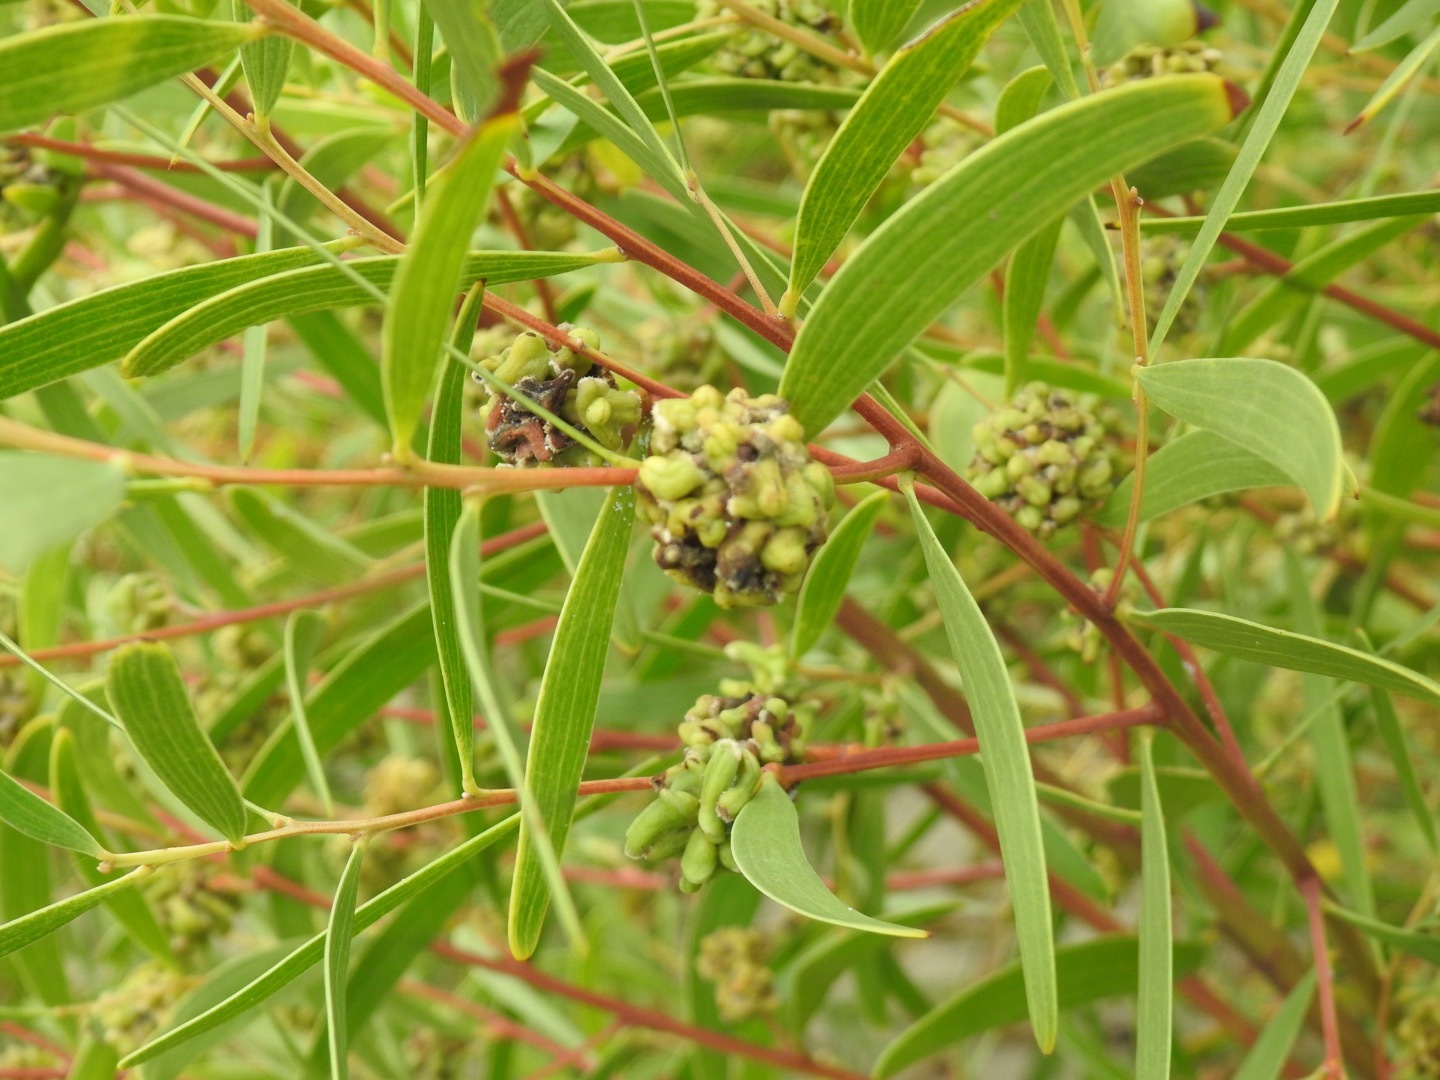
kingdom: Animalia
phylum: Arthropoda
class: Insecta
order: Diptera
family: Cecidomyiidae
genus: Dasineura
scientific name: Dasineura dielsi
